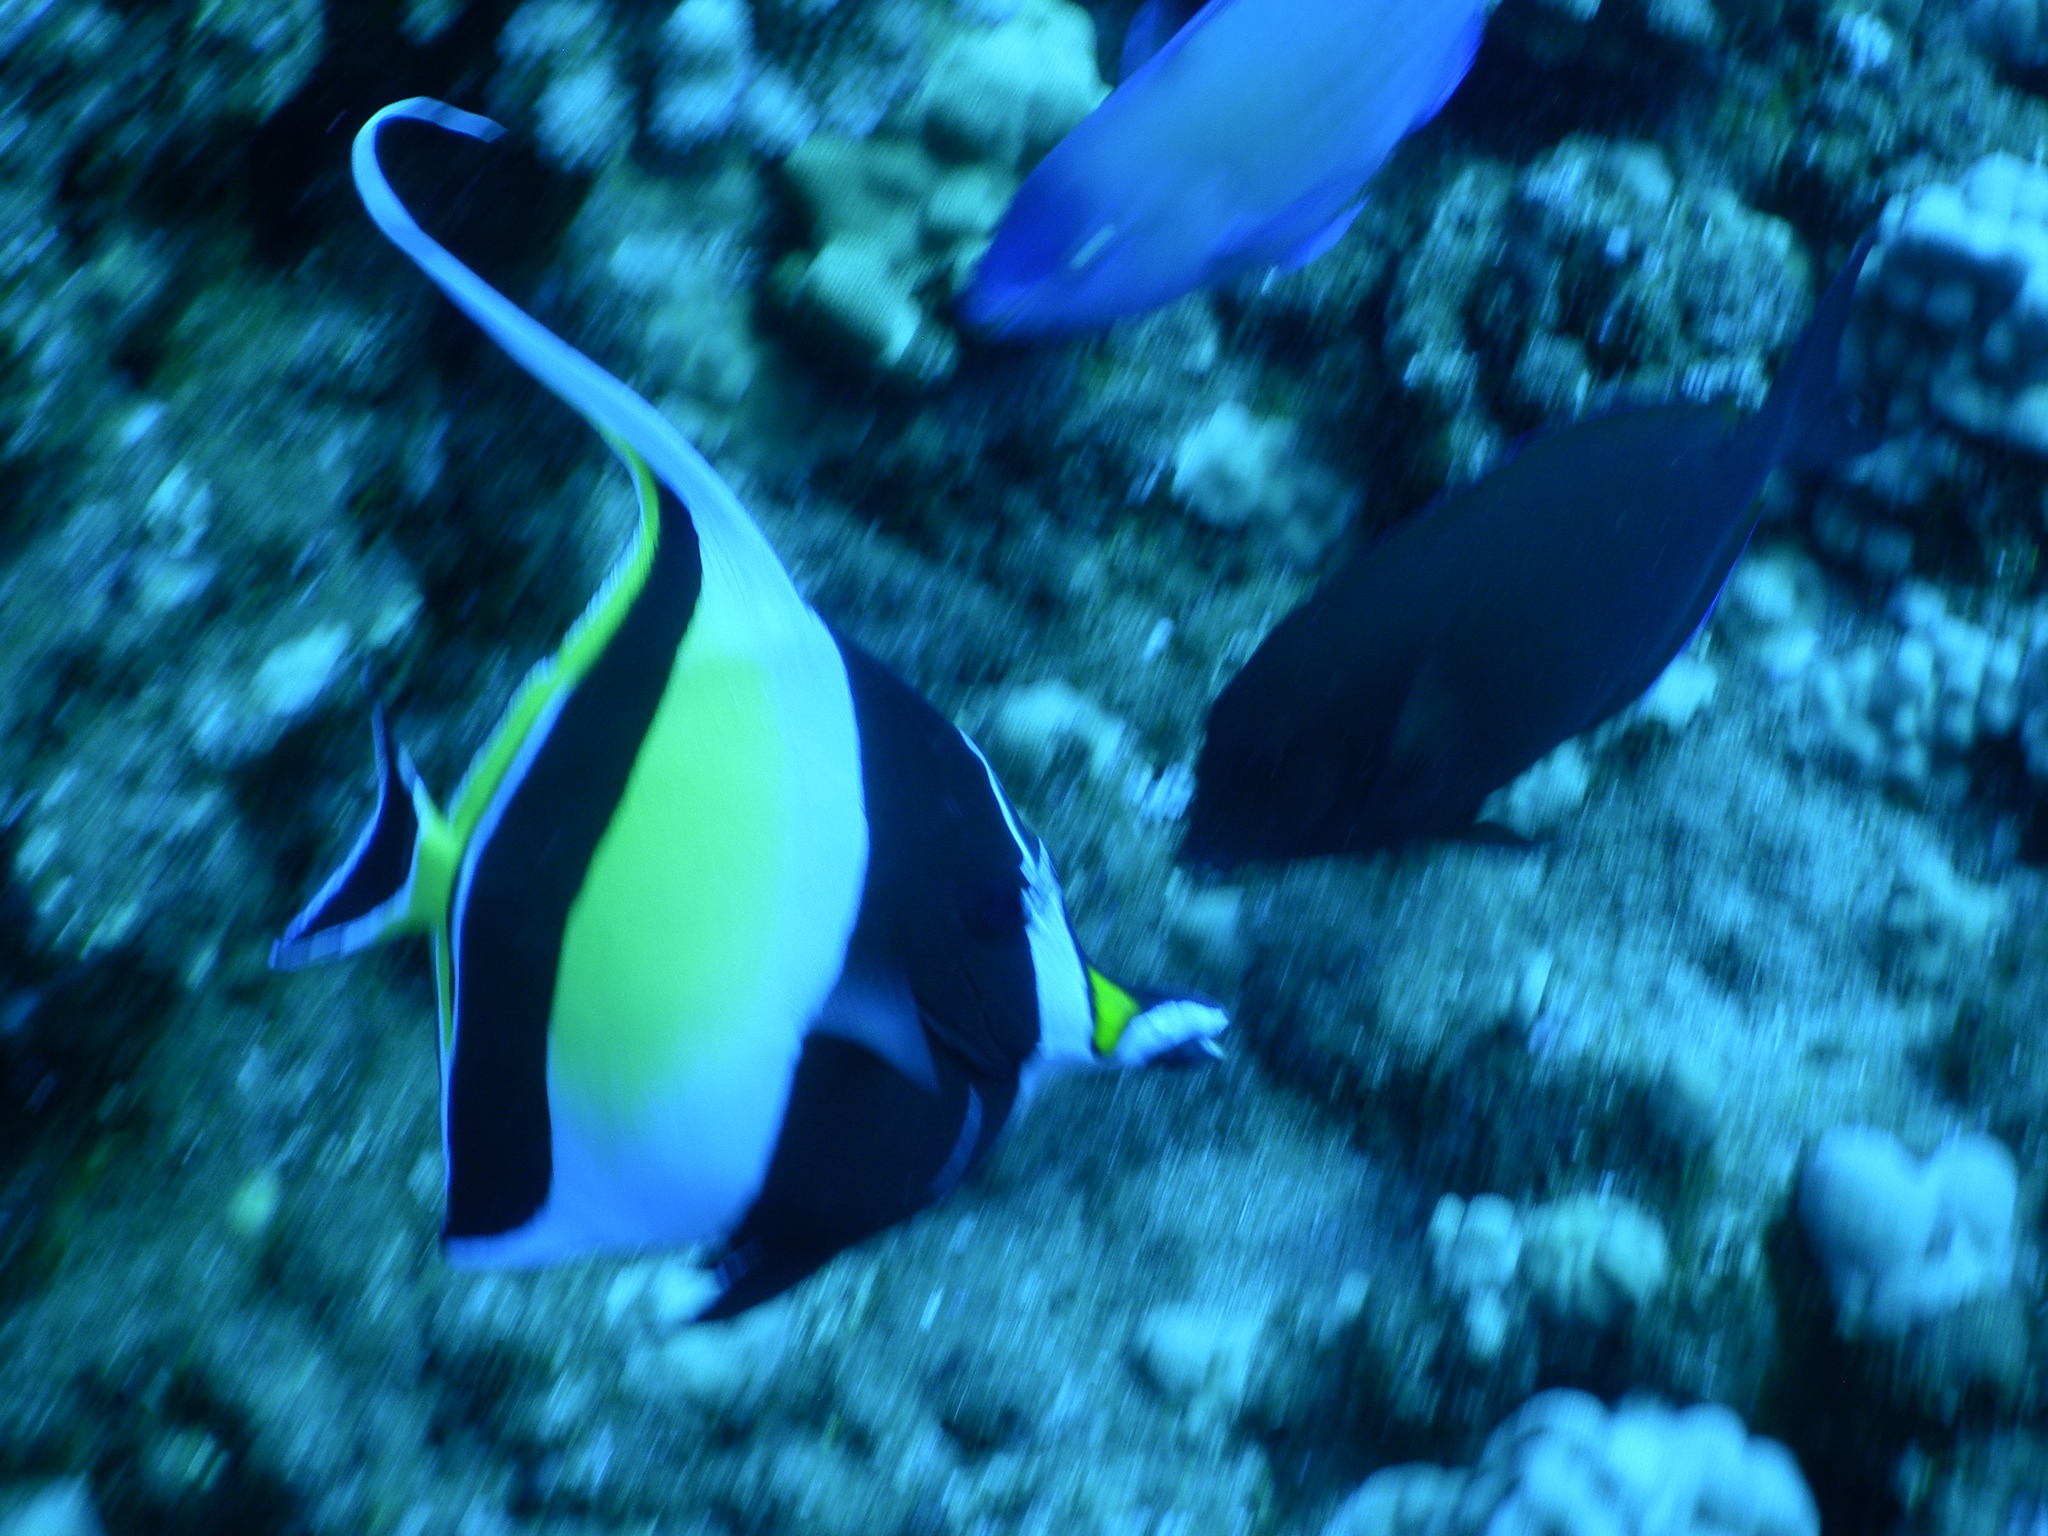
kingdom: Animalia
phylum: Chordata
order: Perciformes
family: Zanclidae
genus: Zanclus
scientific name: Zanclus cornutus
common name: Moorish idol
